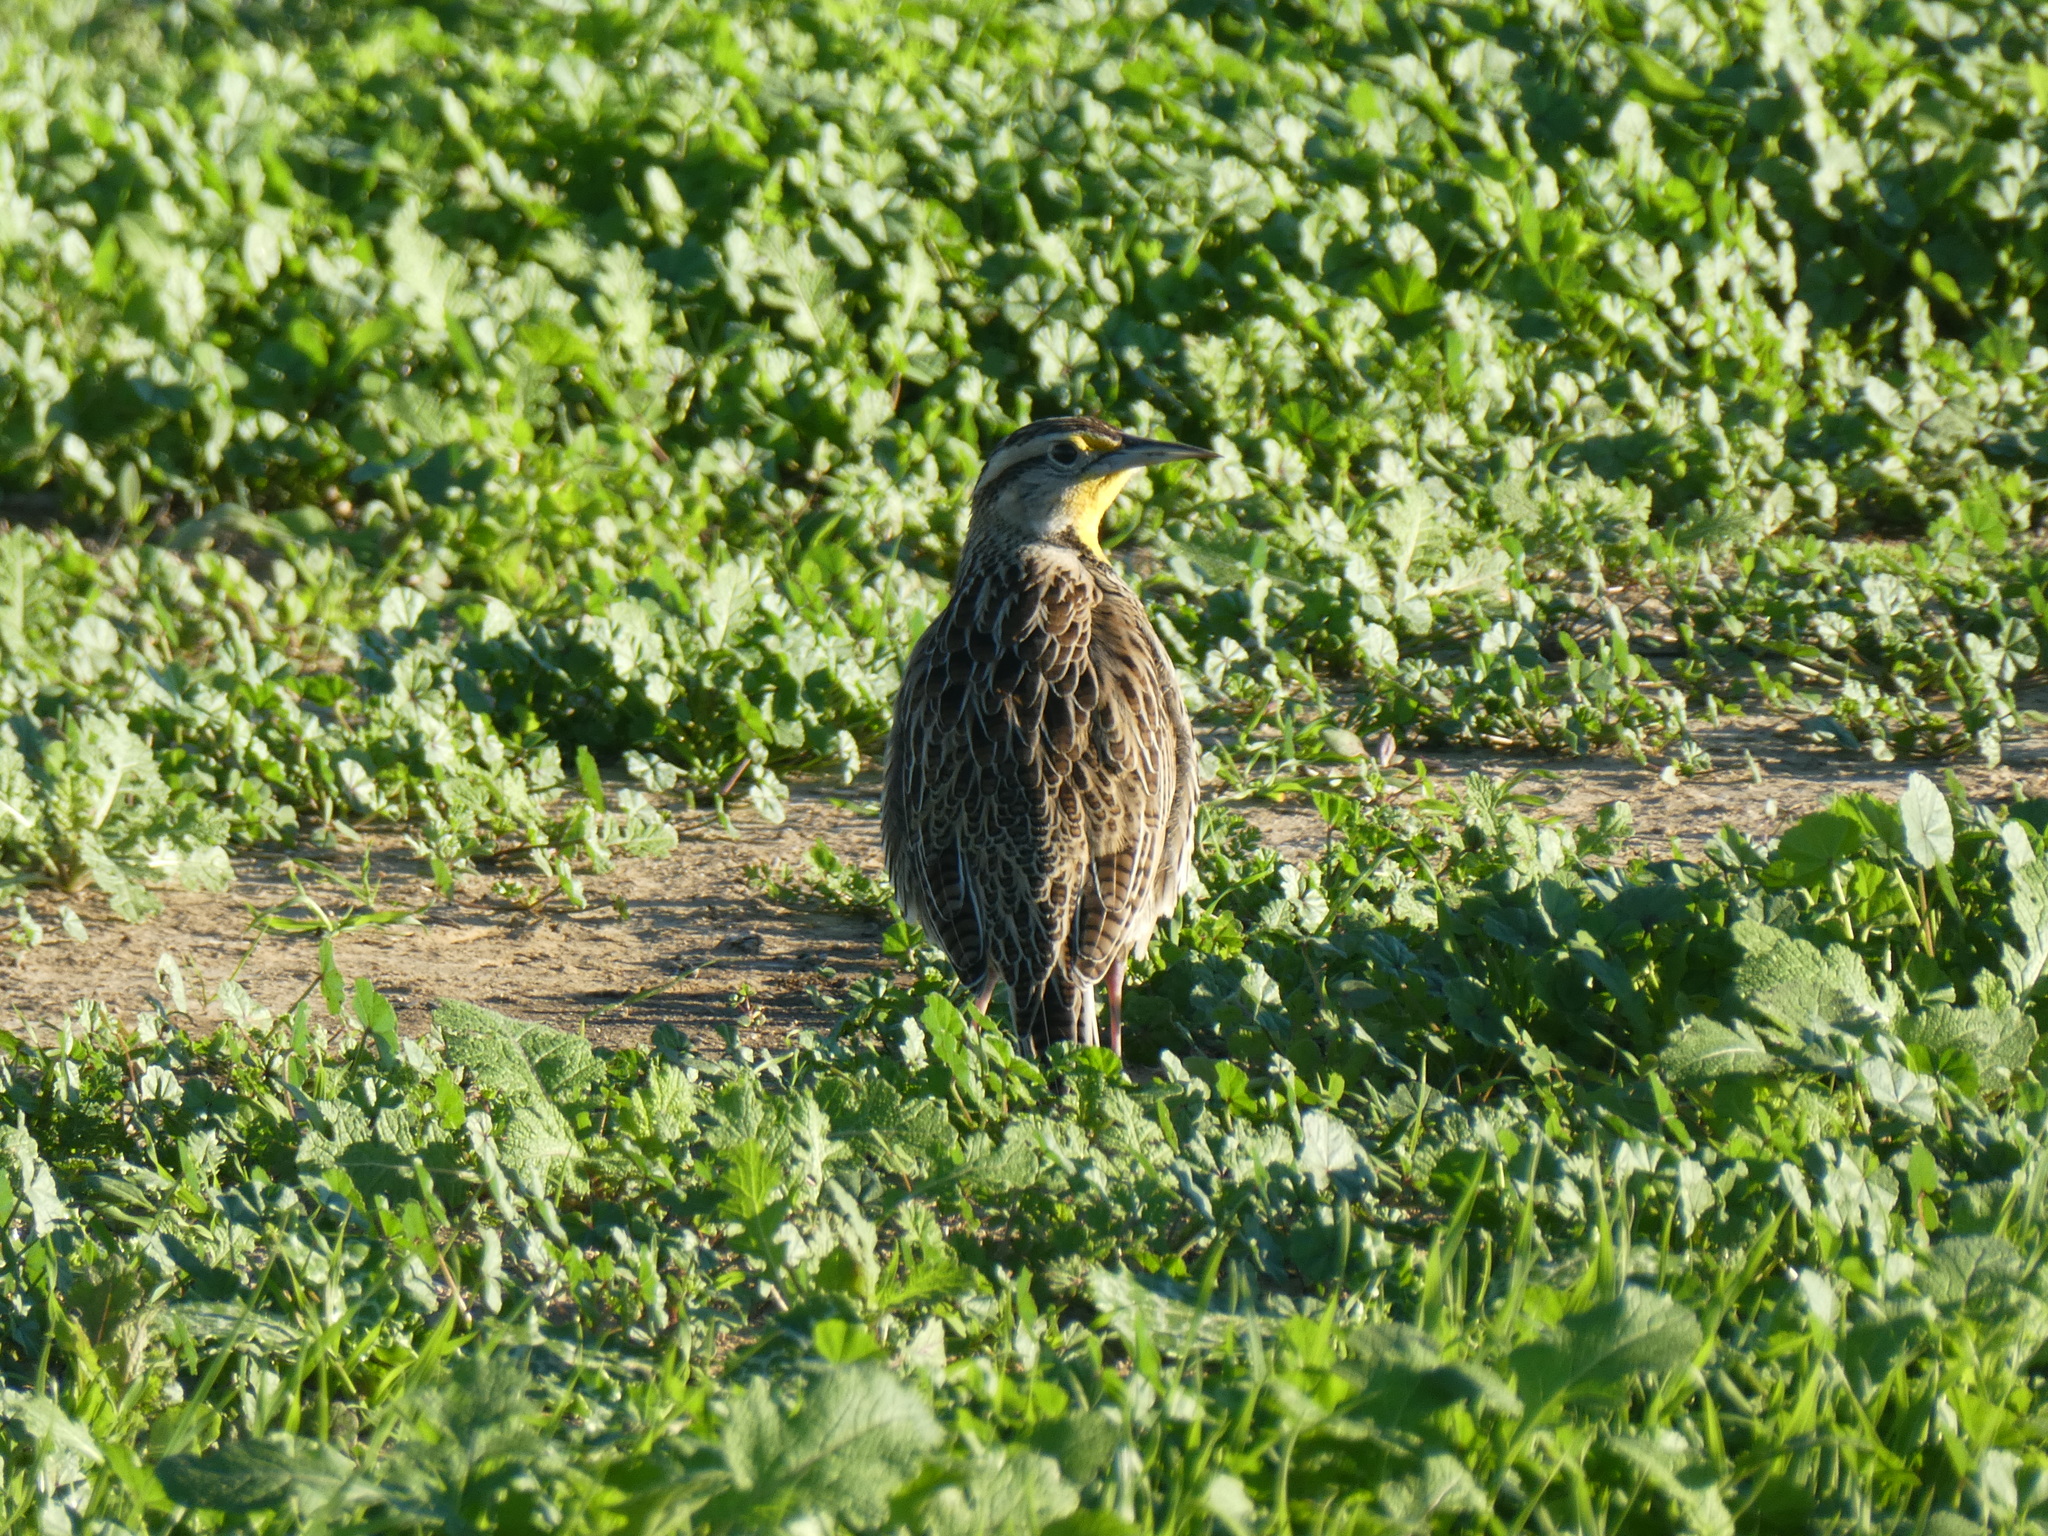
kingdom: Animalia
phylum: Chordata
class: Aves
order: Passeriformes
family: Icteridae
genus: Sturnella
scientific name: Sturnella neglecta
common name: Western meadowlark
